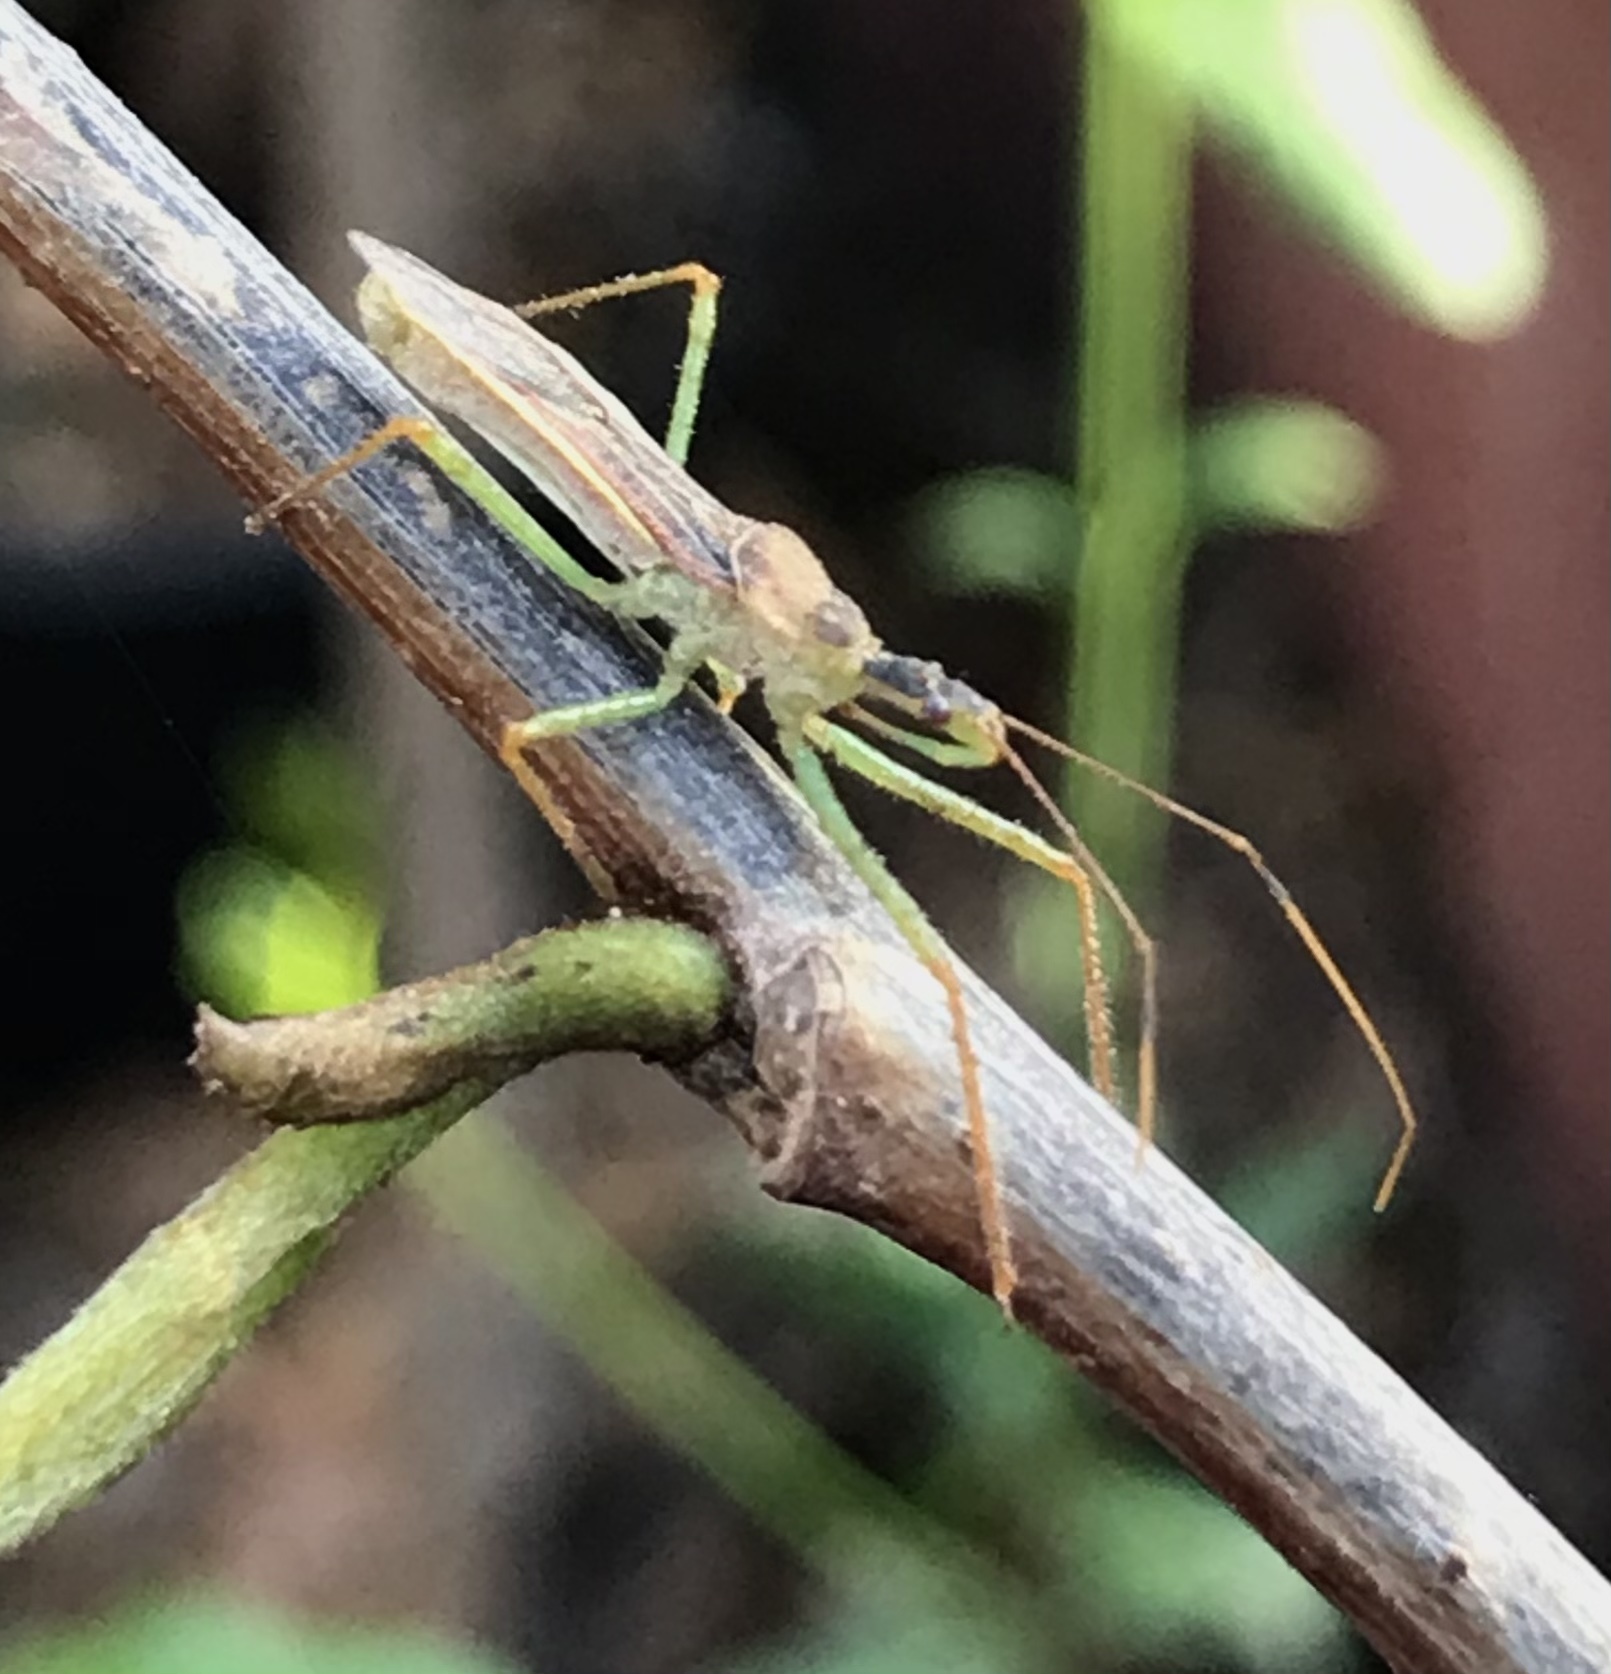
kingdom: Animalia
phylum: Arthropoda
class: Insecta
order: Hemiptera
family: Reduviidae
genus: Zelus
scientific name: Zelus renardii
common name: Assassin bug
